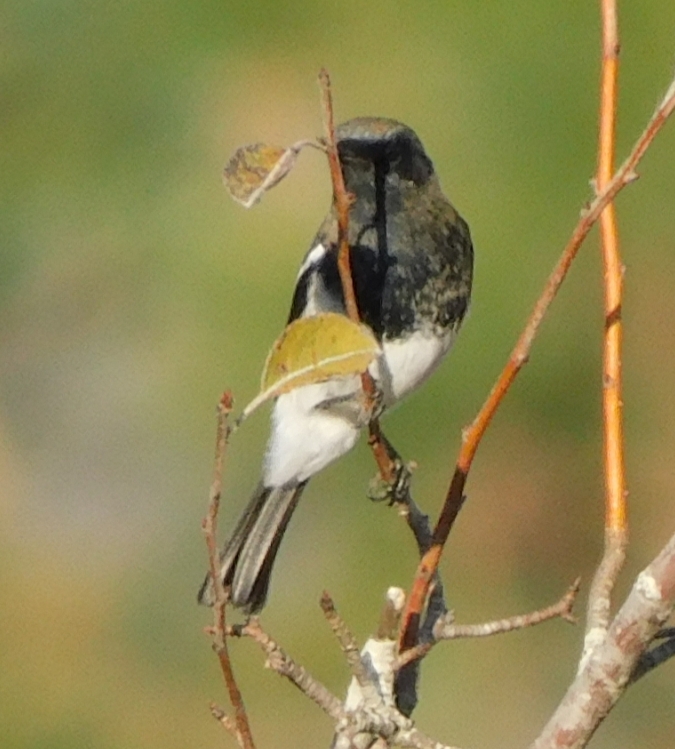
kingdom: Animalia
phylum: Chordata
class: Aves
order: Passeriformes
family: Muscicapidae
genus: Phoenicurus
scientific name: Phoenicurus coeruleocephala
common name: Blue-capped redstart
